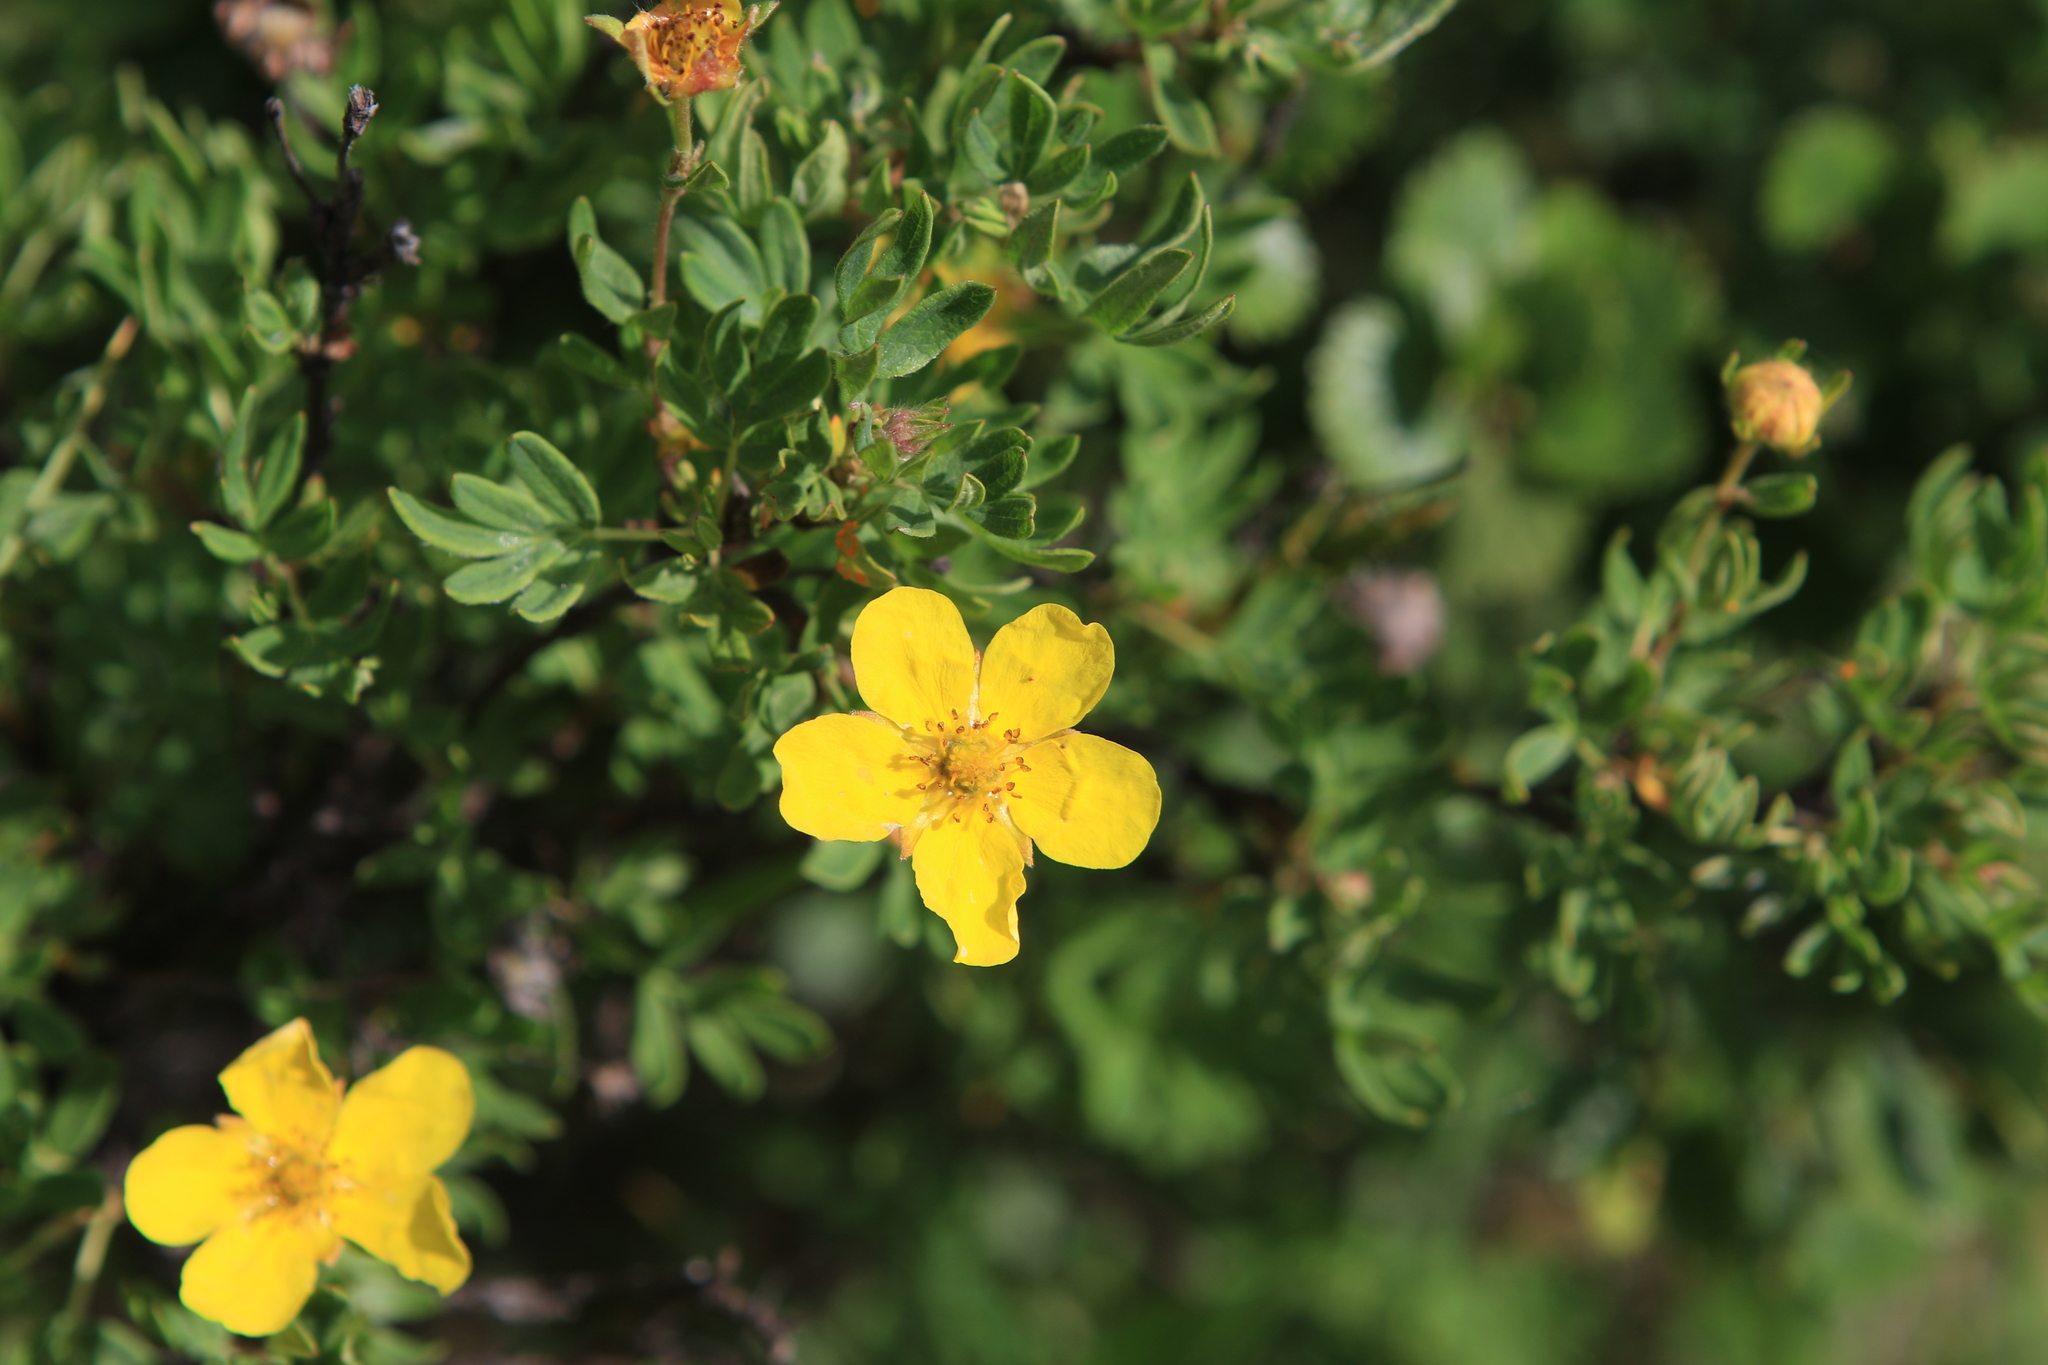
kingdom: Plantae
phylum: Tracheophyta
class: Magnoliopsida
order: Rosales
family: Rosaceae
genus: Dasiphora
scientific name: Dasiphora fruticosa
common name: Shrubby cinquefoil
